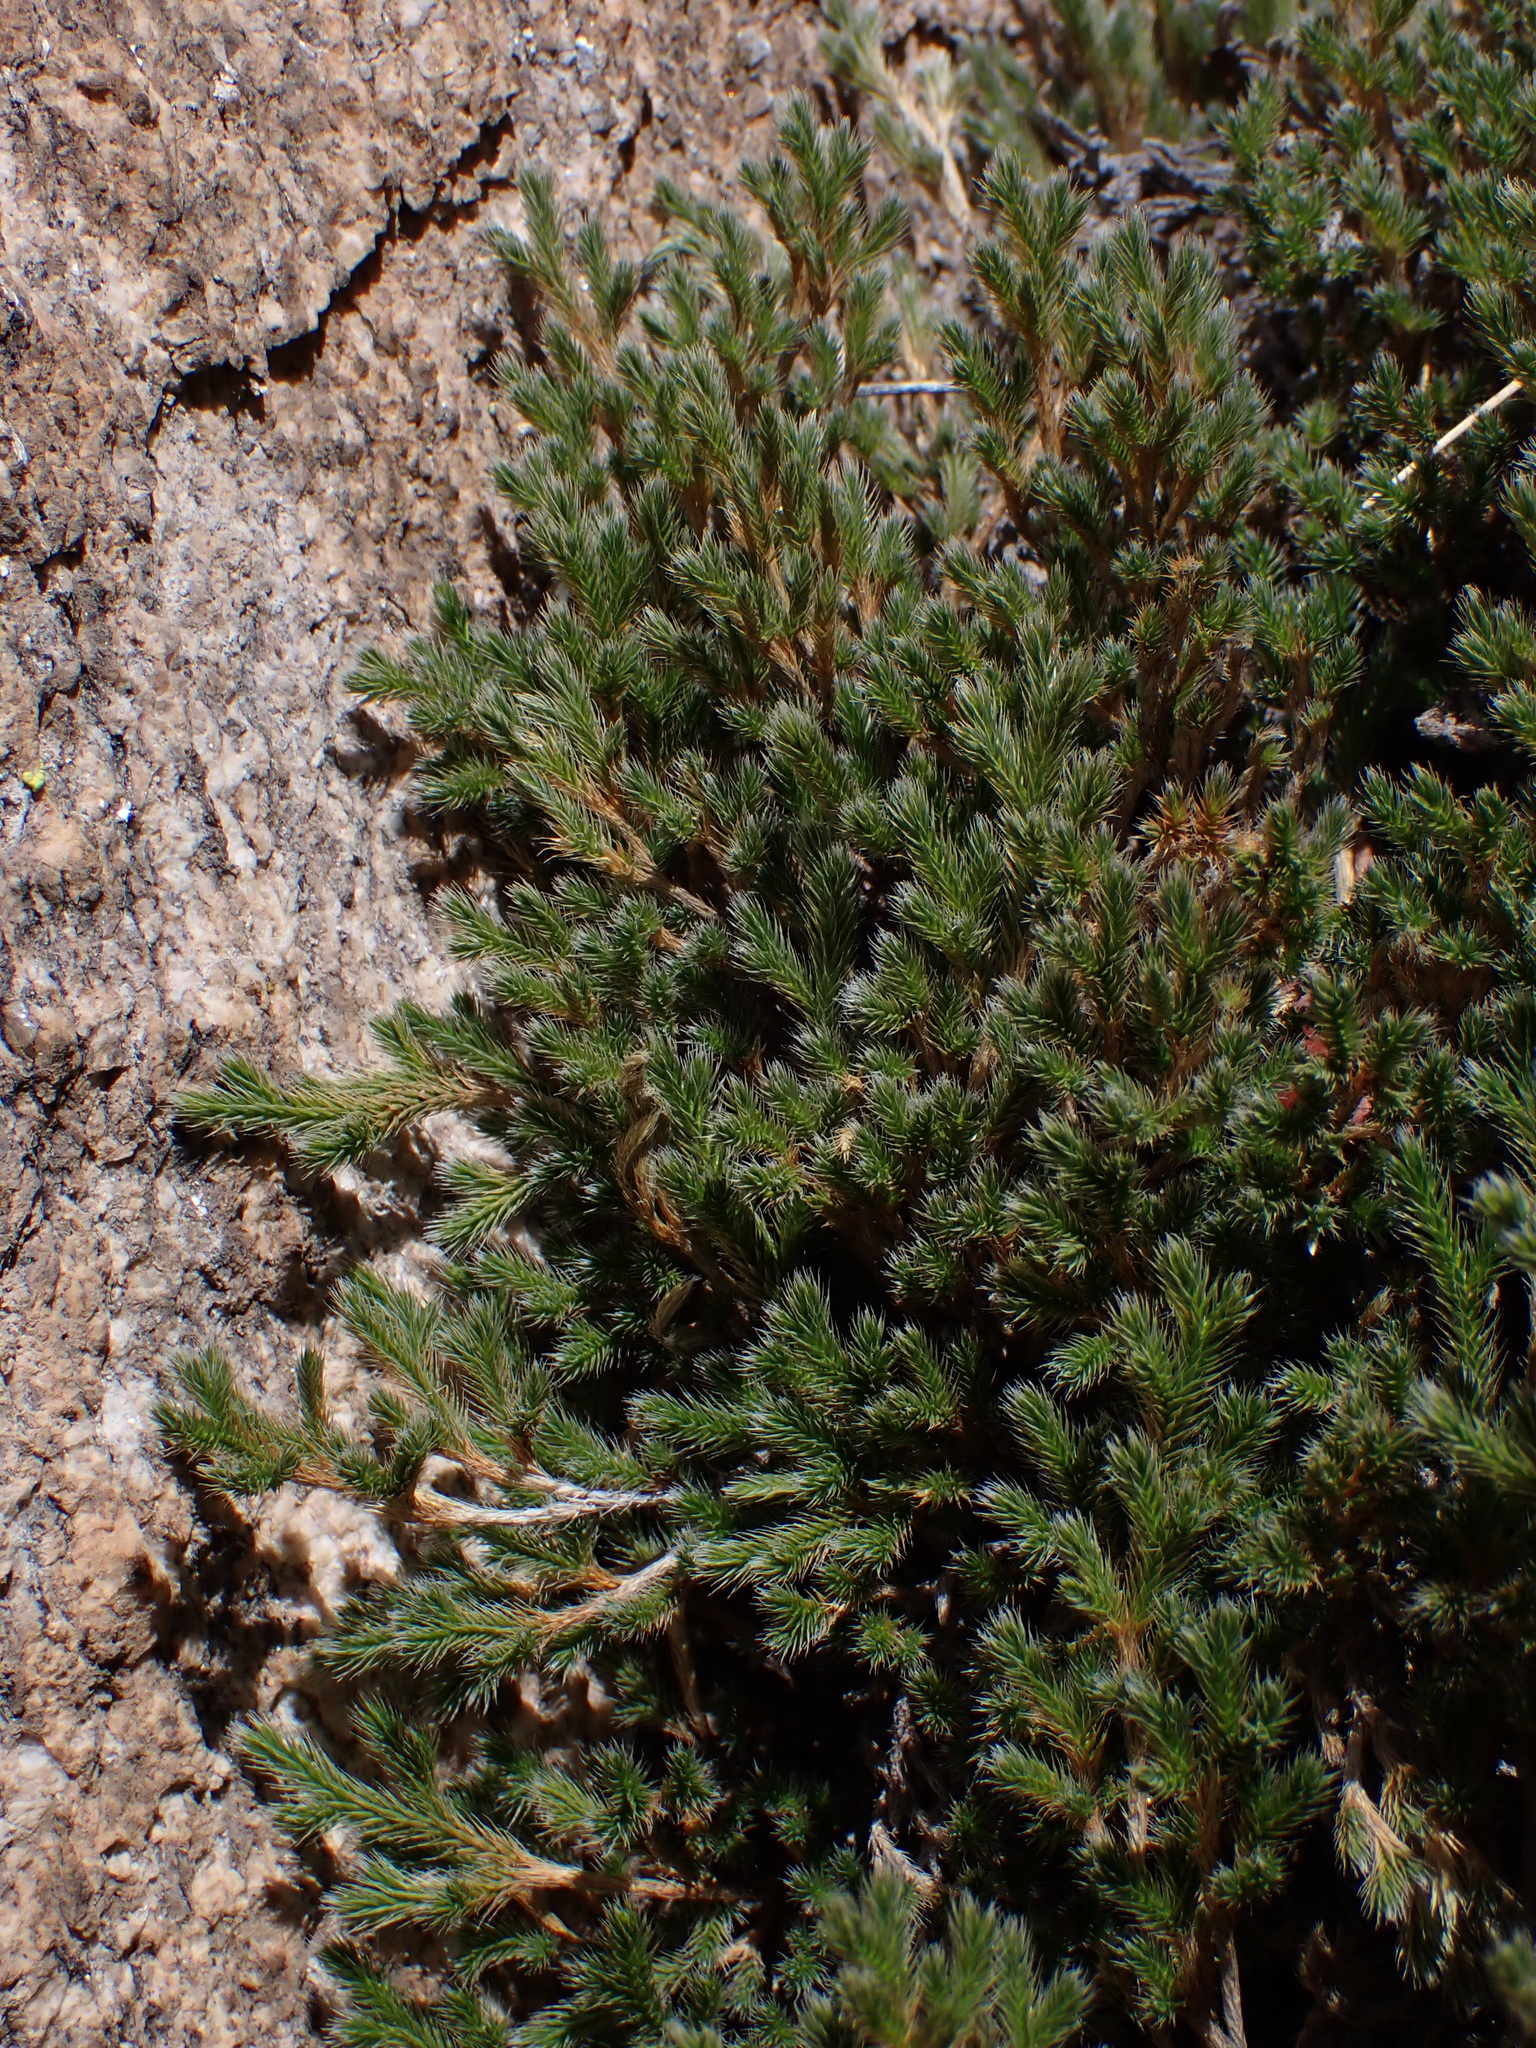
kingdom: Plantae
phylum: Tracheophyta
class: Lycopodiopsida
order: Selaginellales
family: Selaginellaceae
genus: Selaginella
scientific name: Selaginella rupincola
